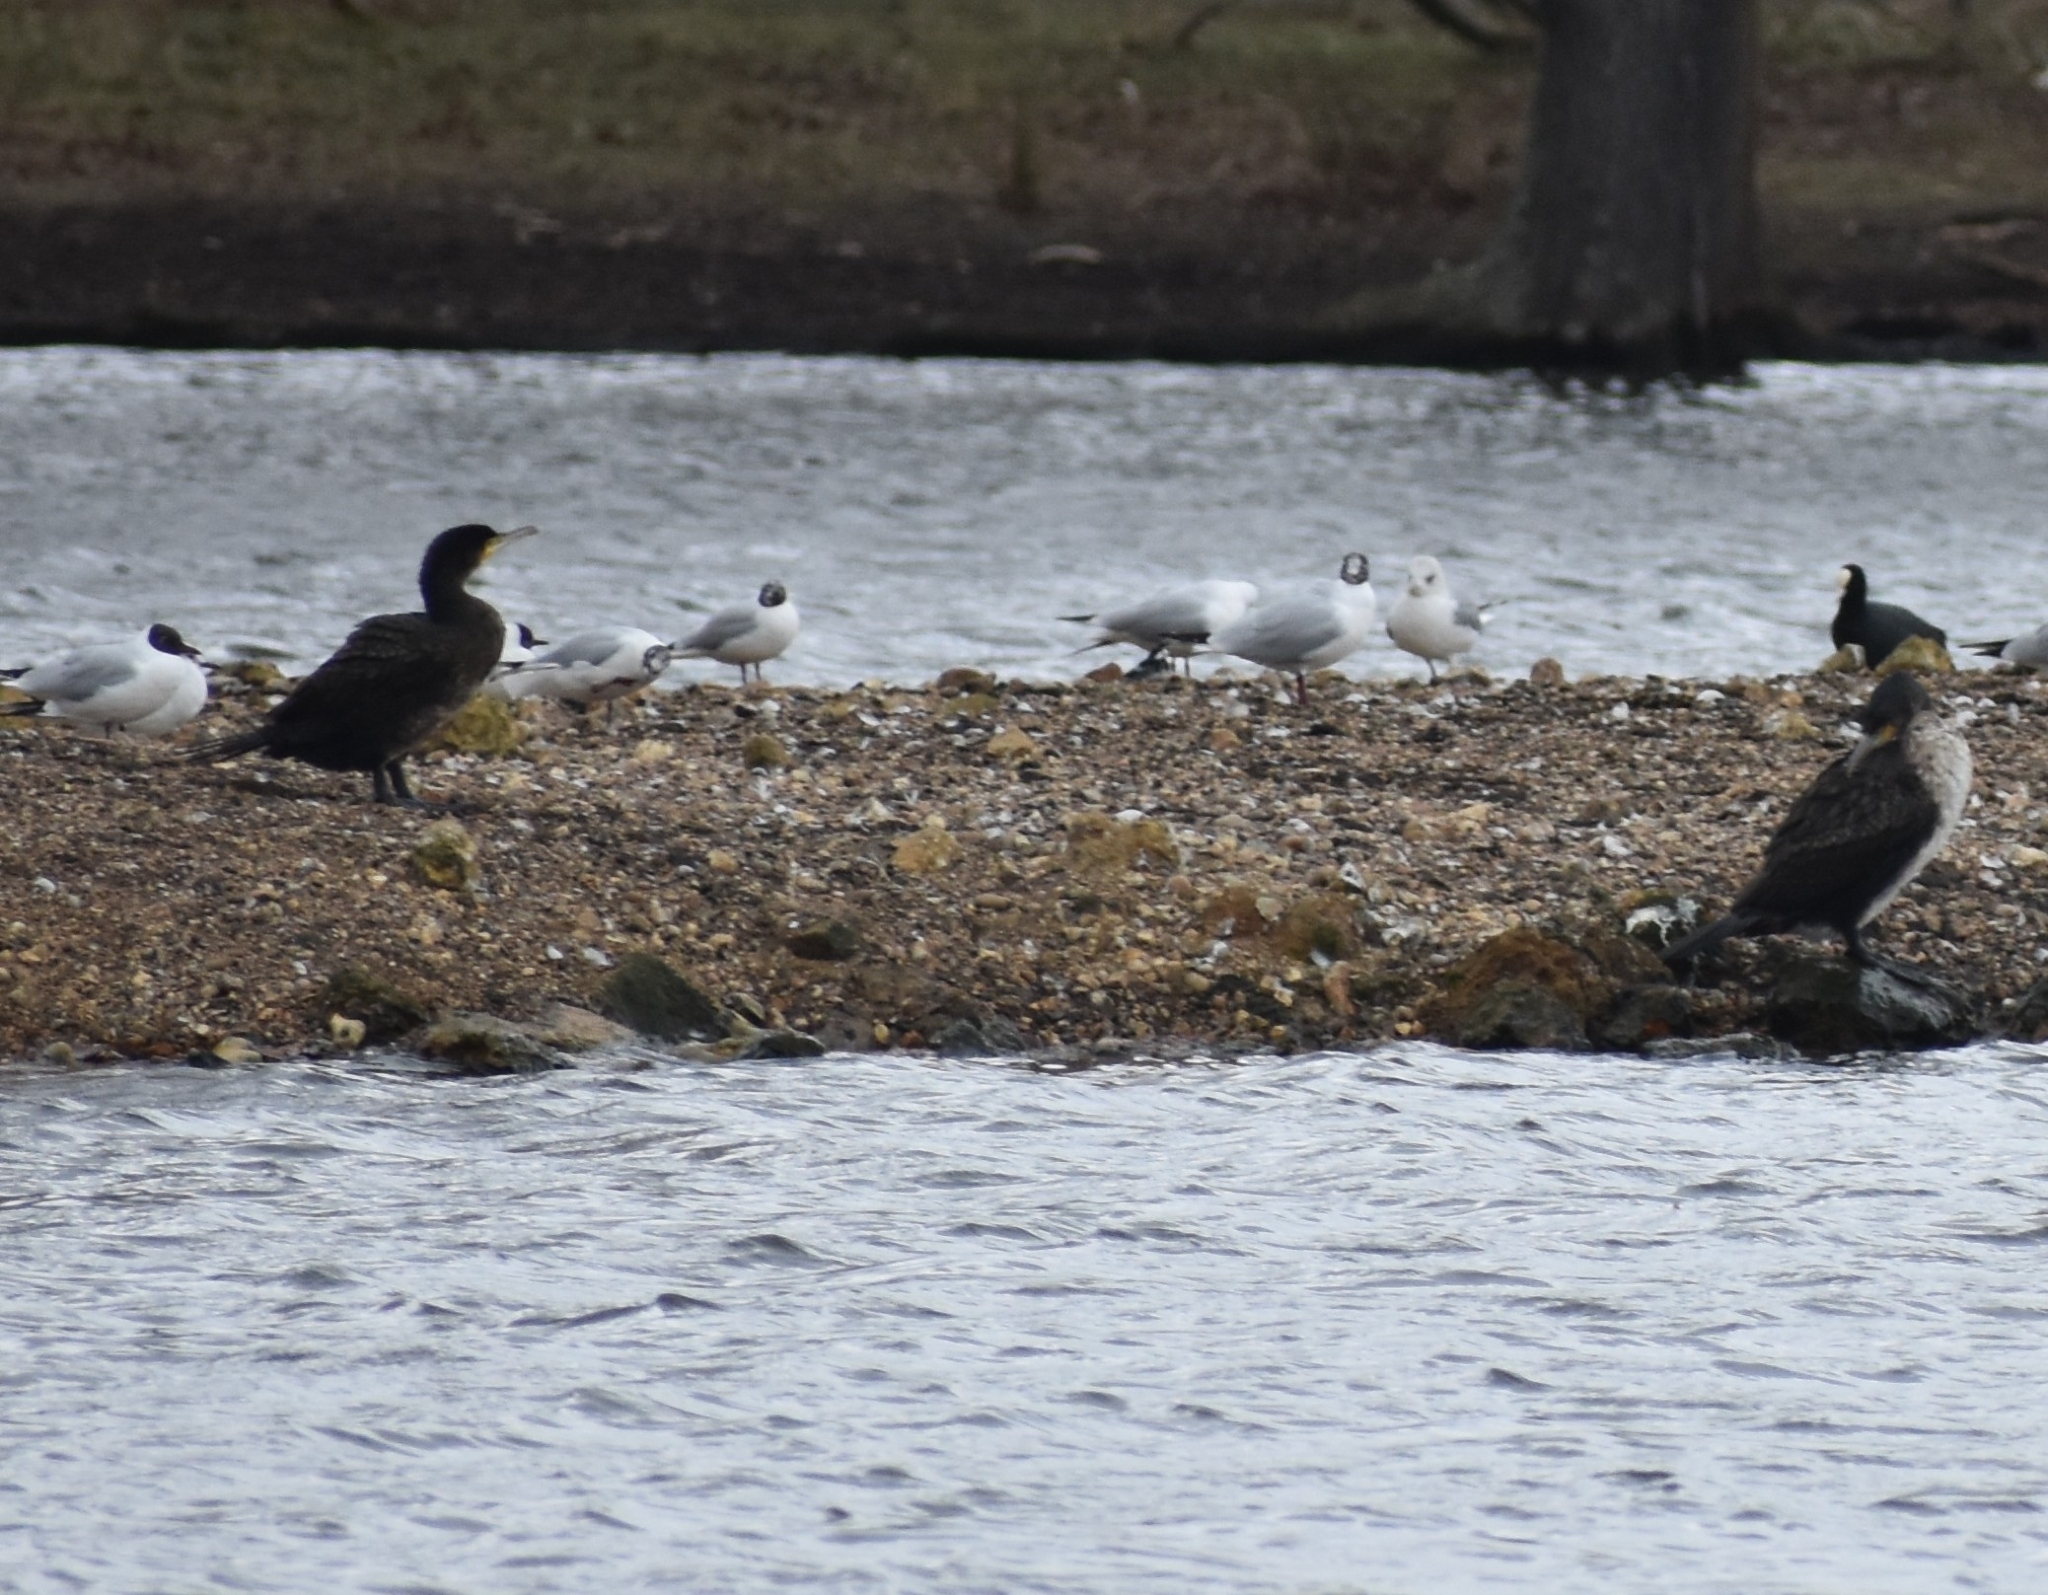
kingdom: Animalia
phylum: Chordata
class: Aves
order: Suliformes
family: Phalacrocoracidae
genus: Phalacrocorax
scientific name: Phalacrocorax carbo
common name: Great cormorant
